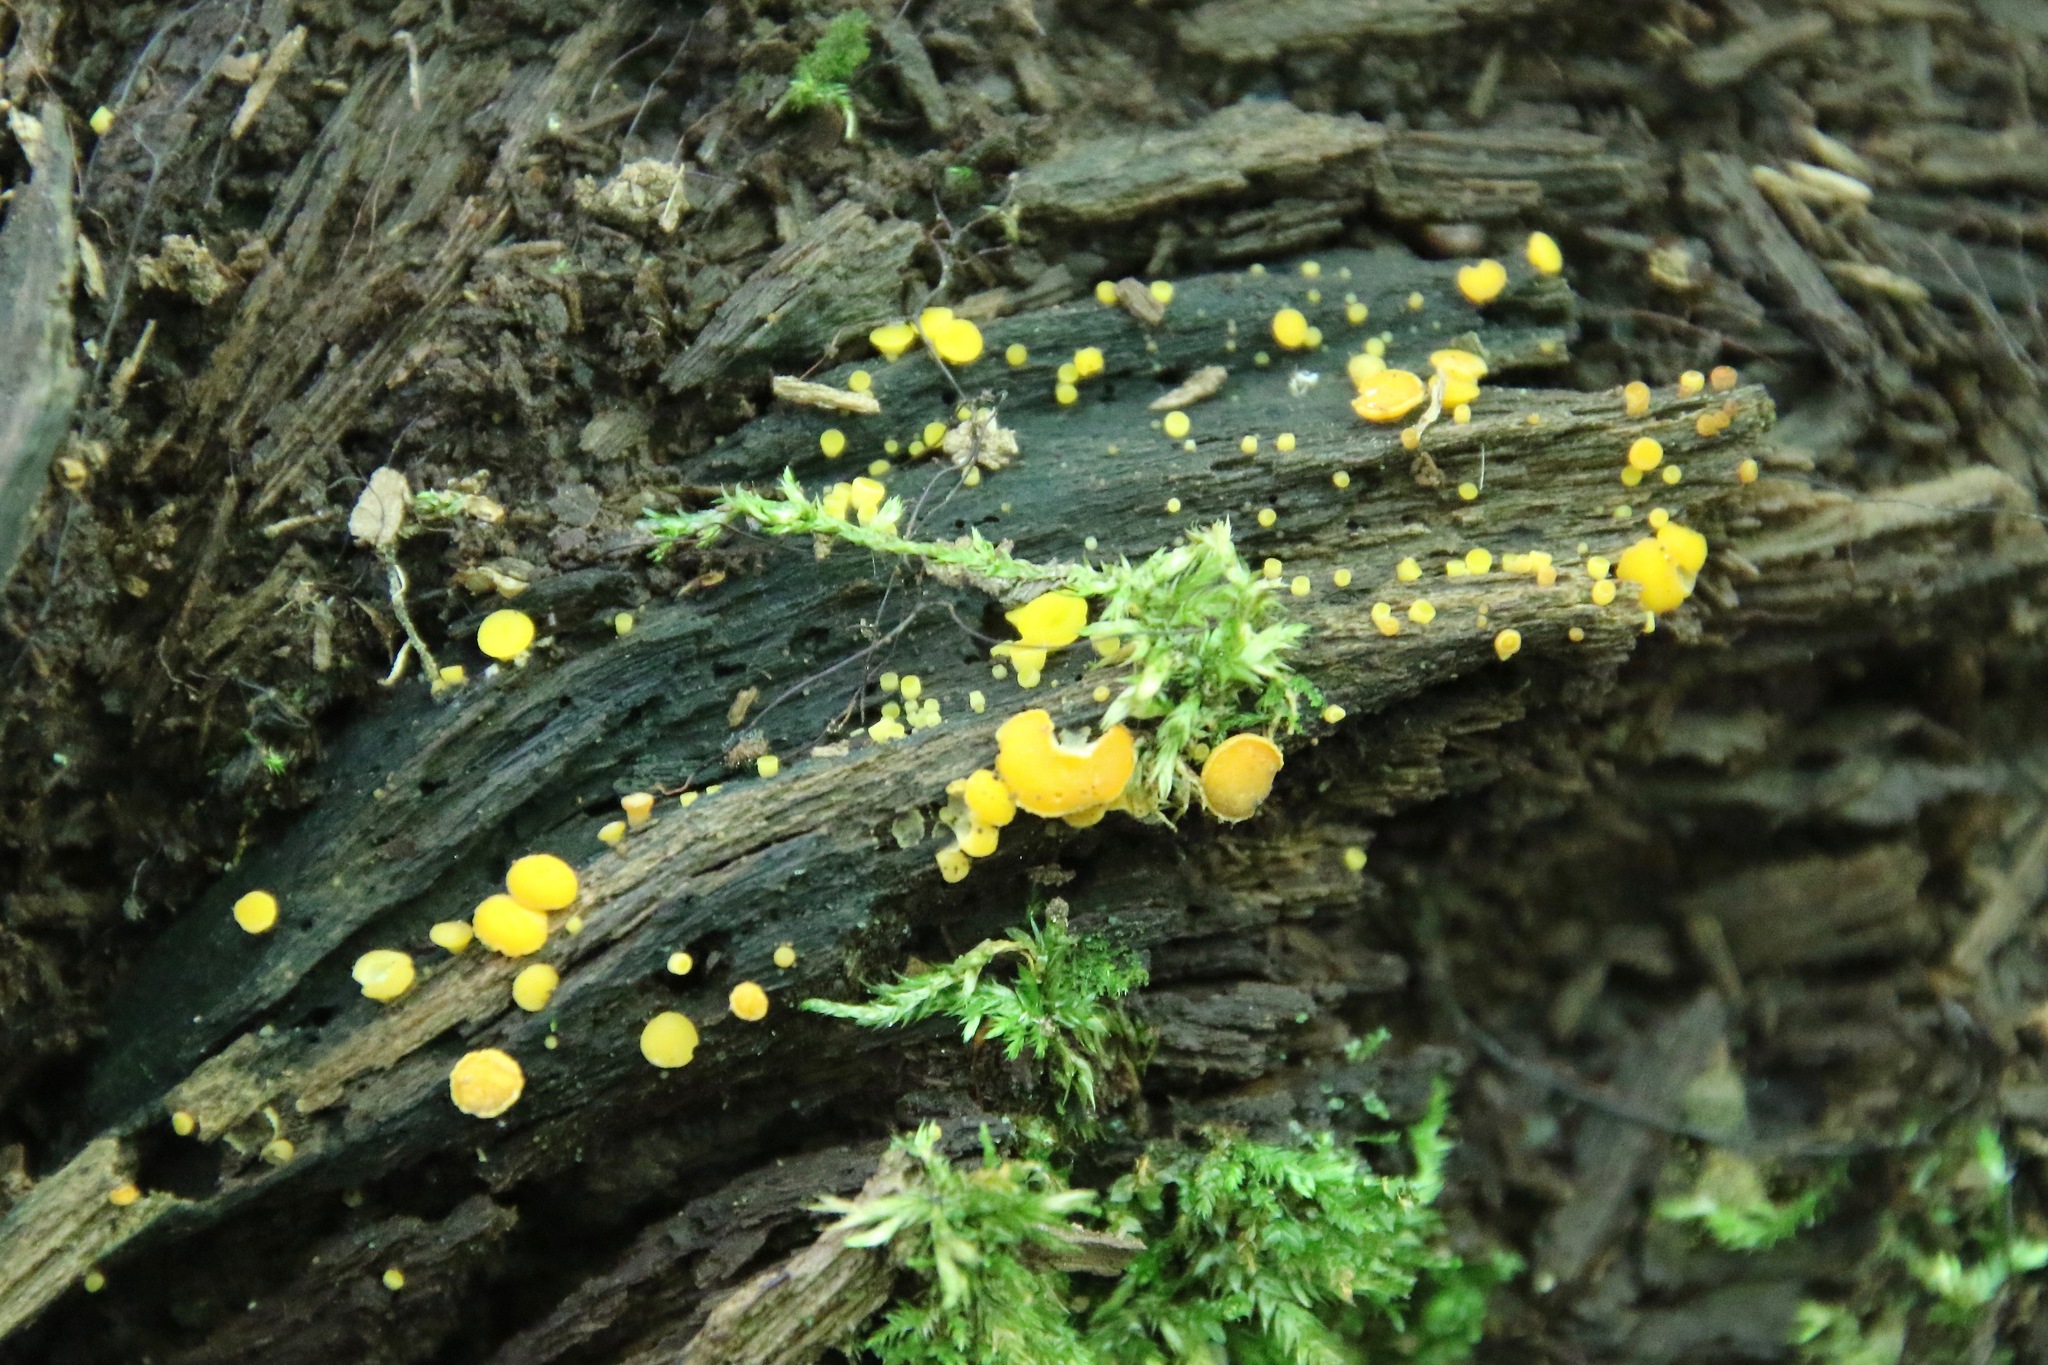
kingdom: Fungi
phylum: Ascomycota
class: Leotiomycetes
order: Helotiales
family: Pezizellaceae
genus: Calycina
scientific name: Calycina citrina
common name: Yellow fairy cups
